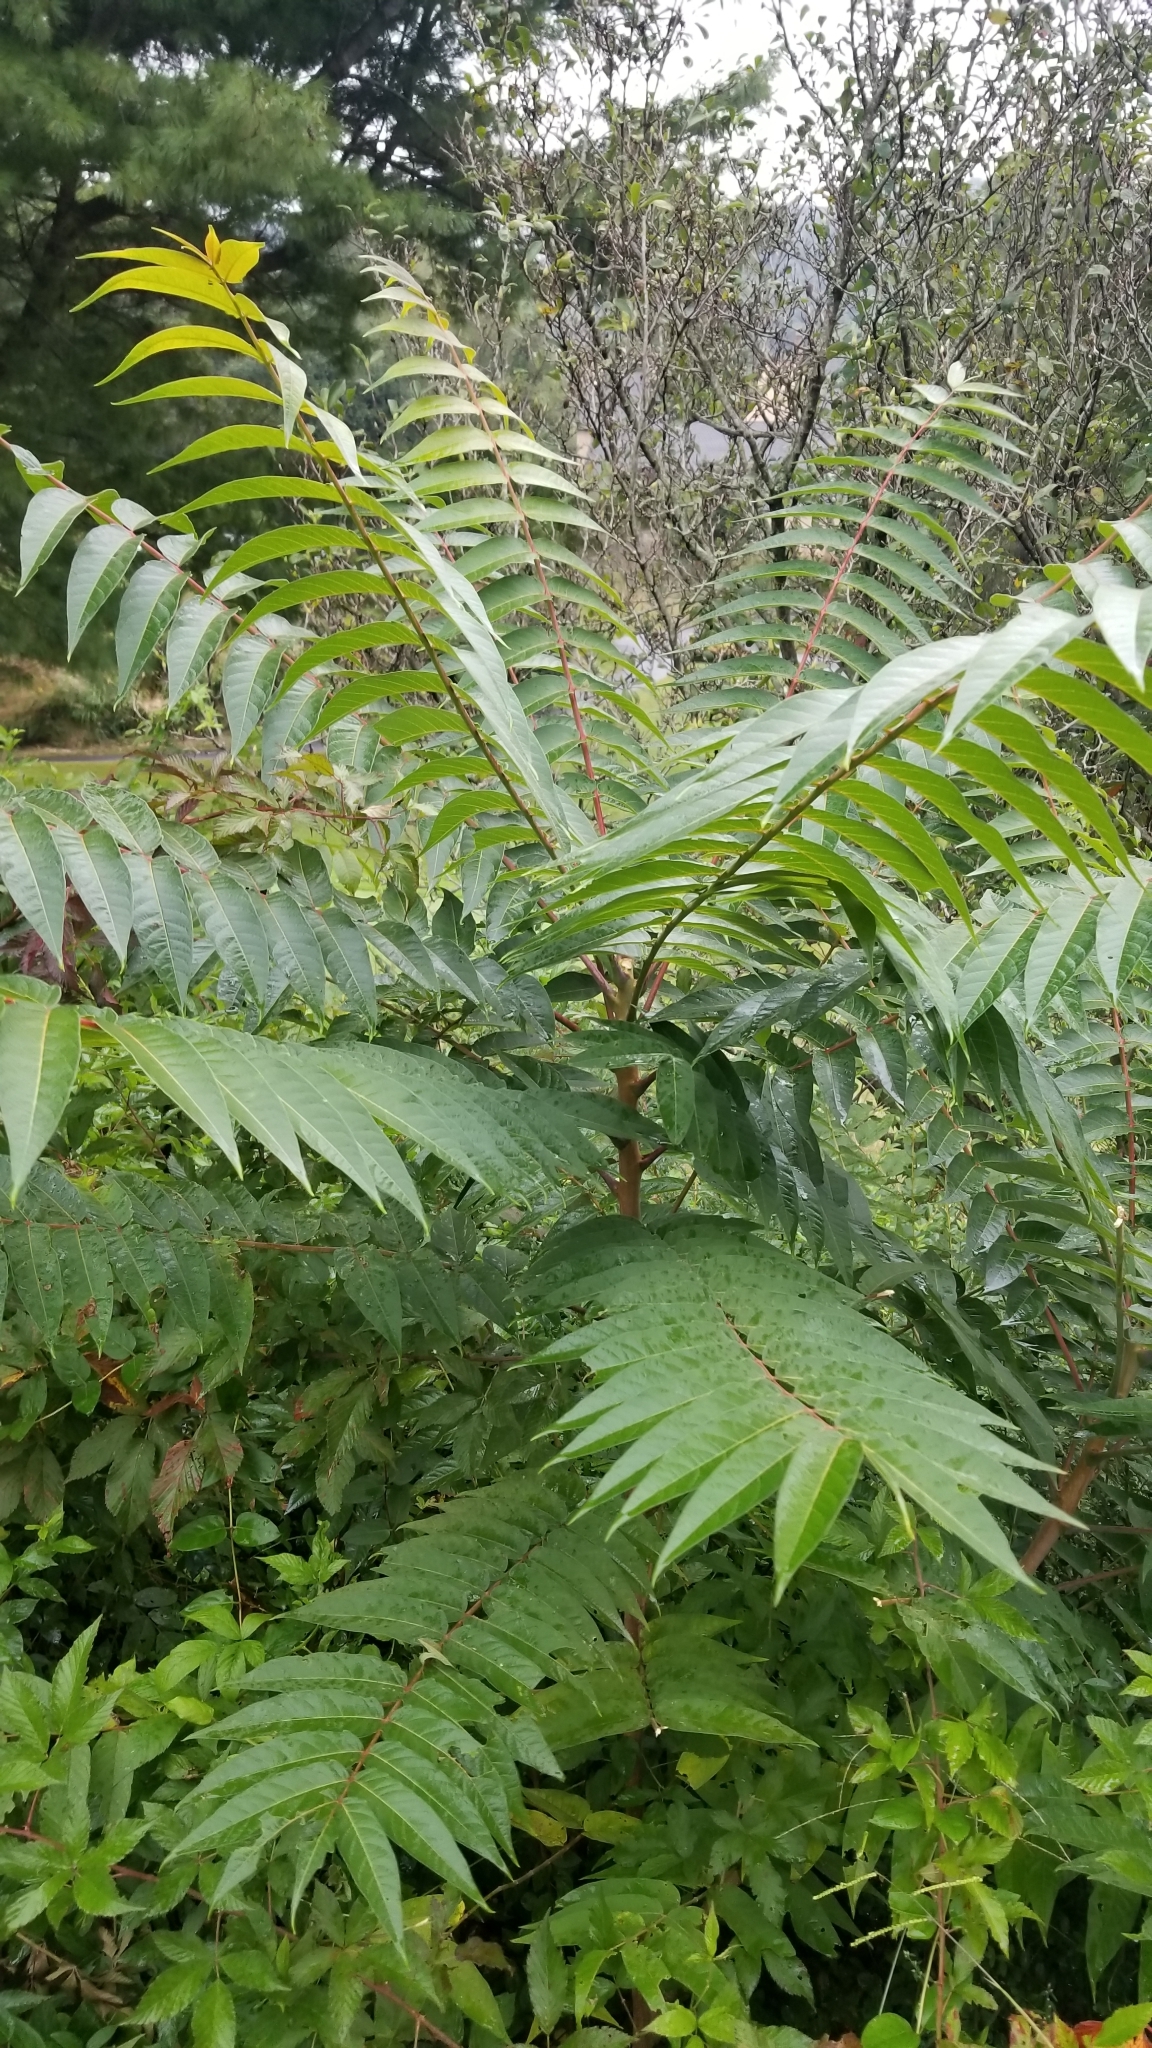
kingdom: Plantae
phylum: Tracheophyta
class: Magnoliopsida
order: Sapindales
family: Simaroubaceae
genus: Ailanthus
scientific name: Ailanthus altissima
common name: Tree-of-heaven
